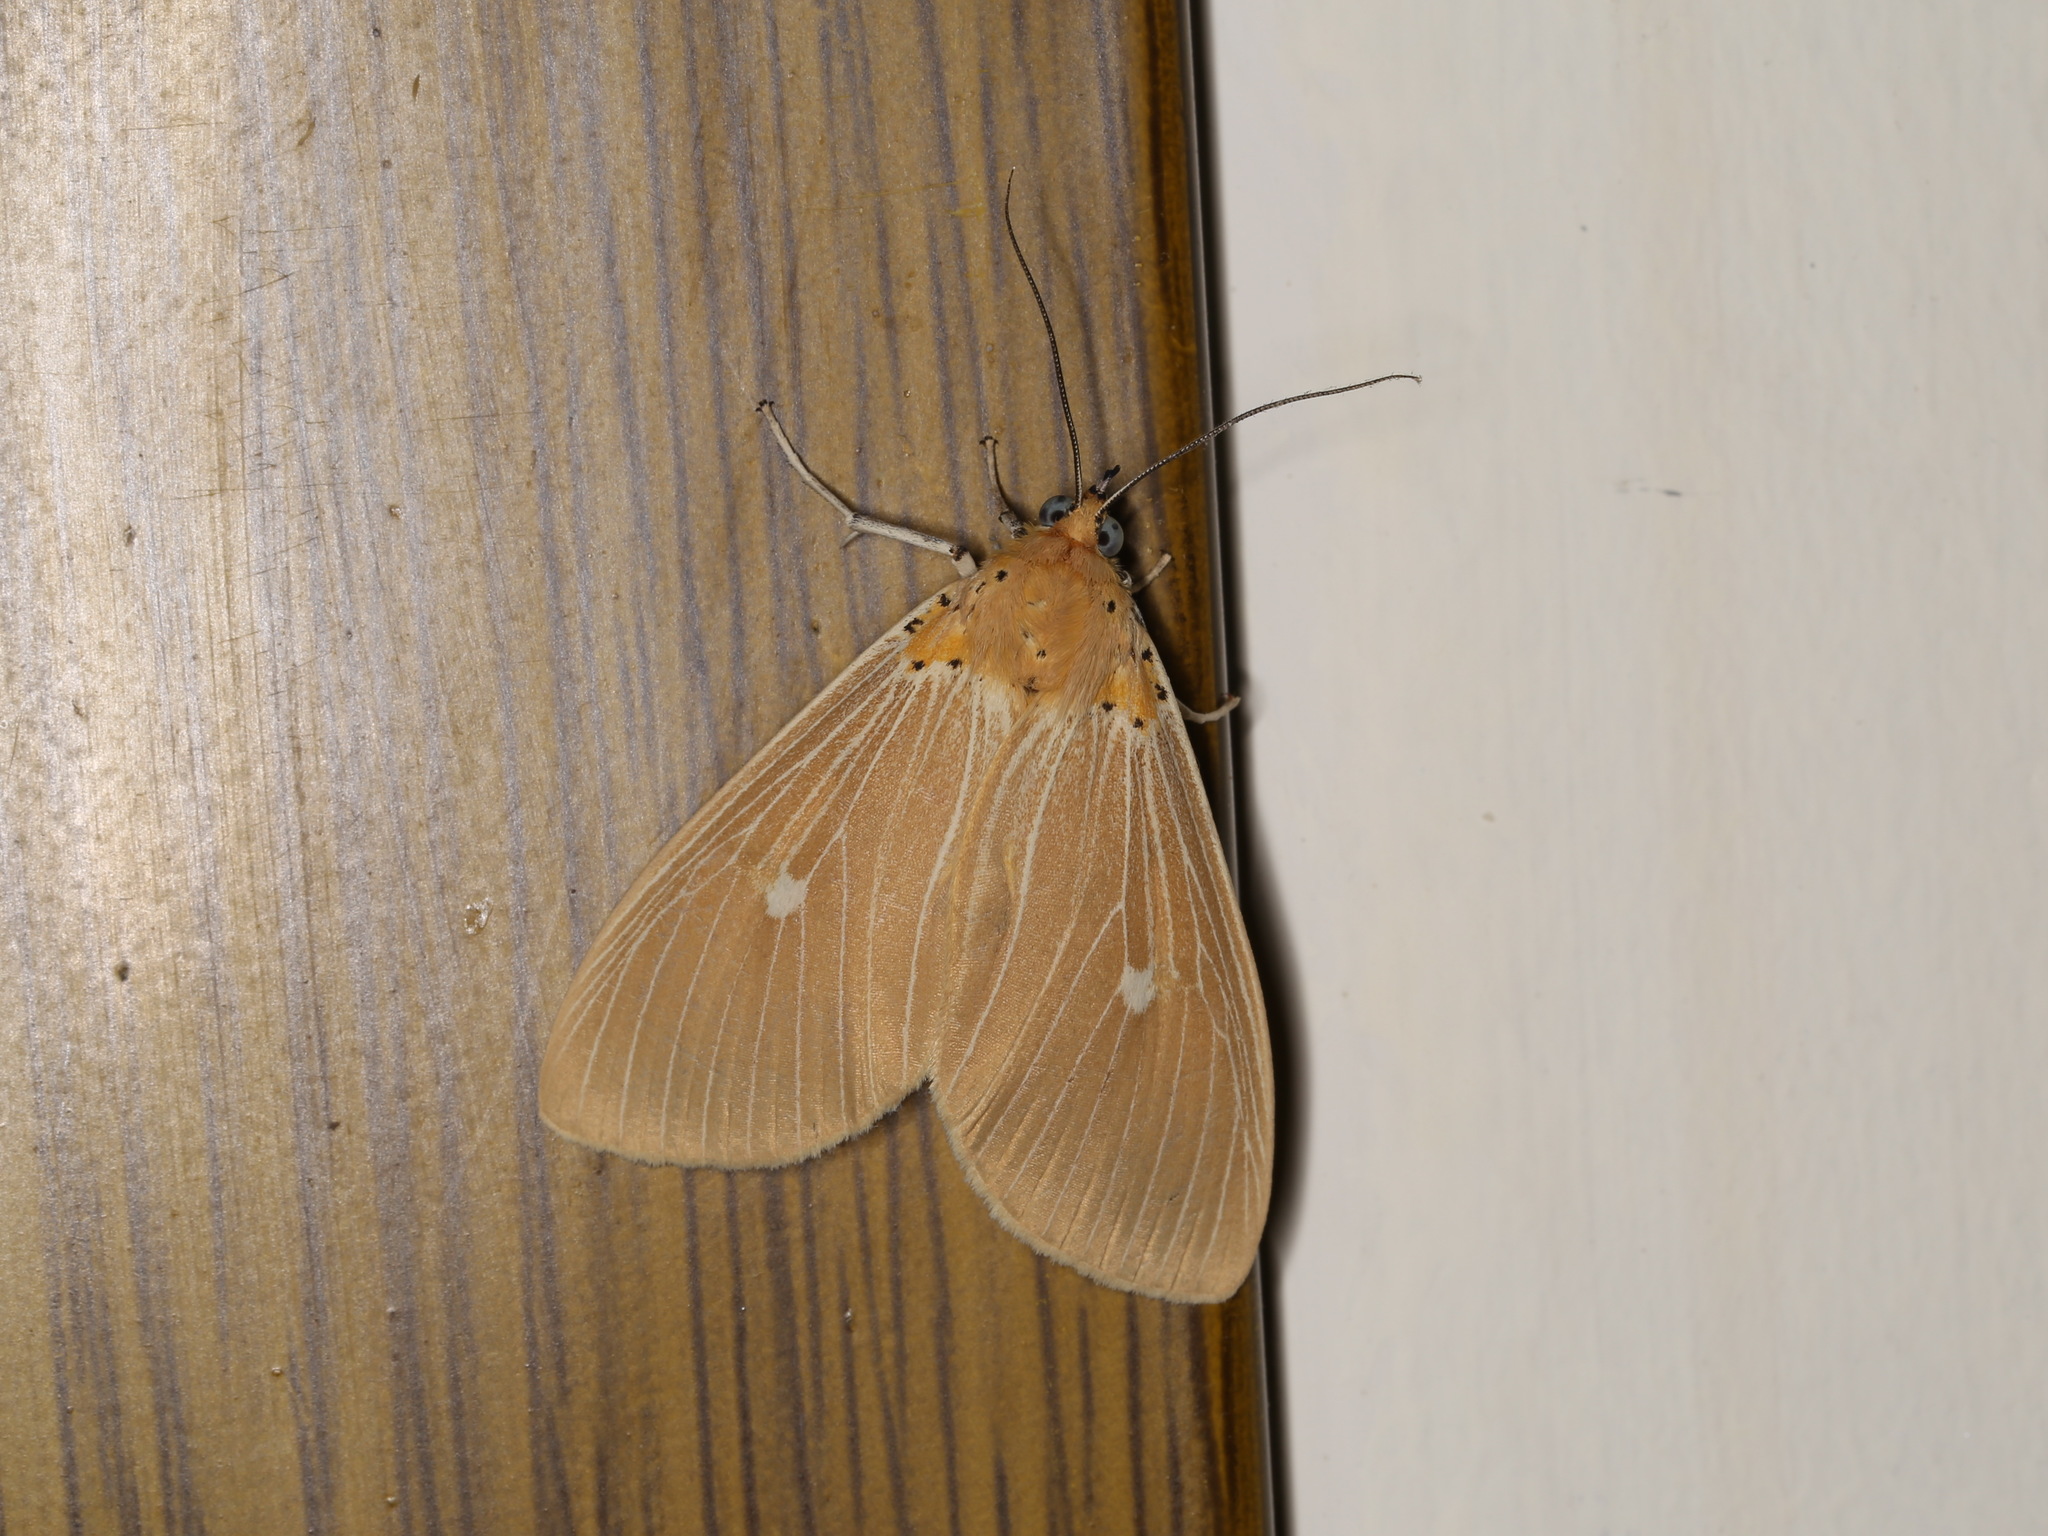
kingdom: Animalia
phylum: Arthropoda
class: Insecta
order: Lepidoptera
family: Erebidae
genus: Asota
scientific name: Asota caricae
